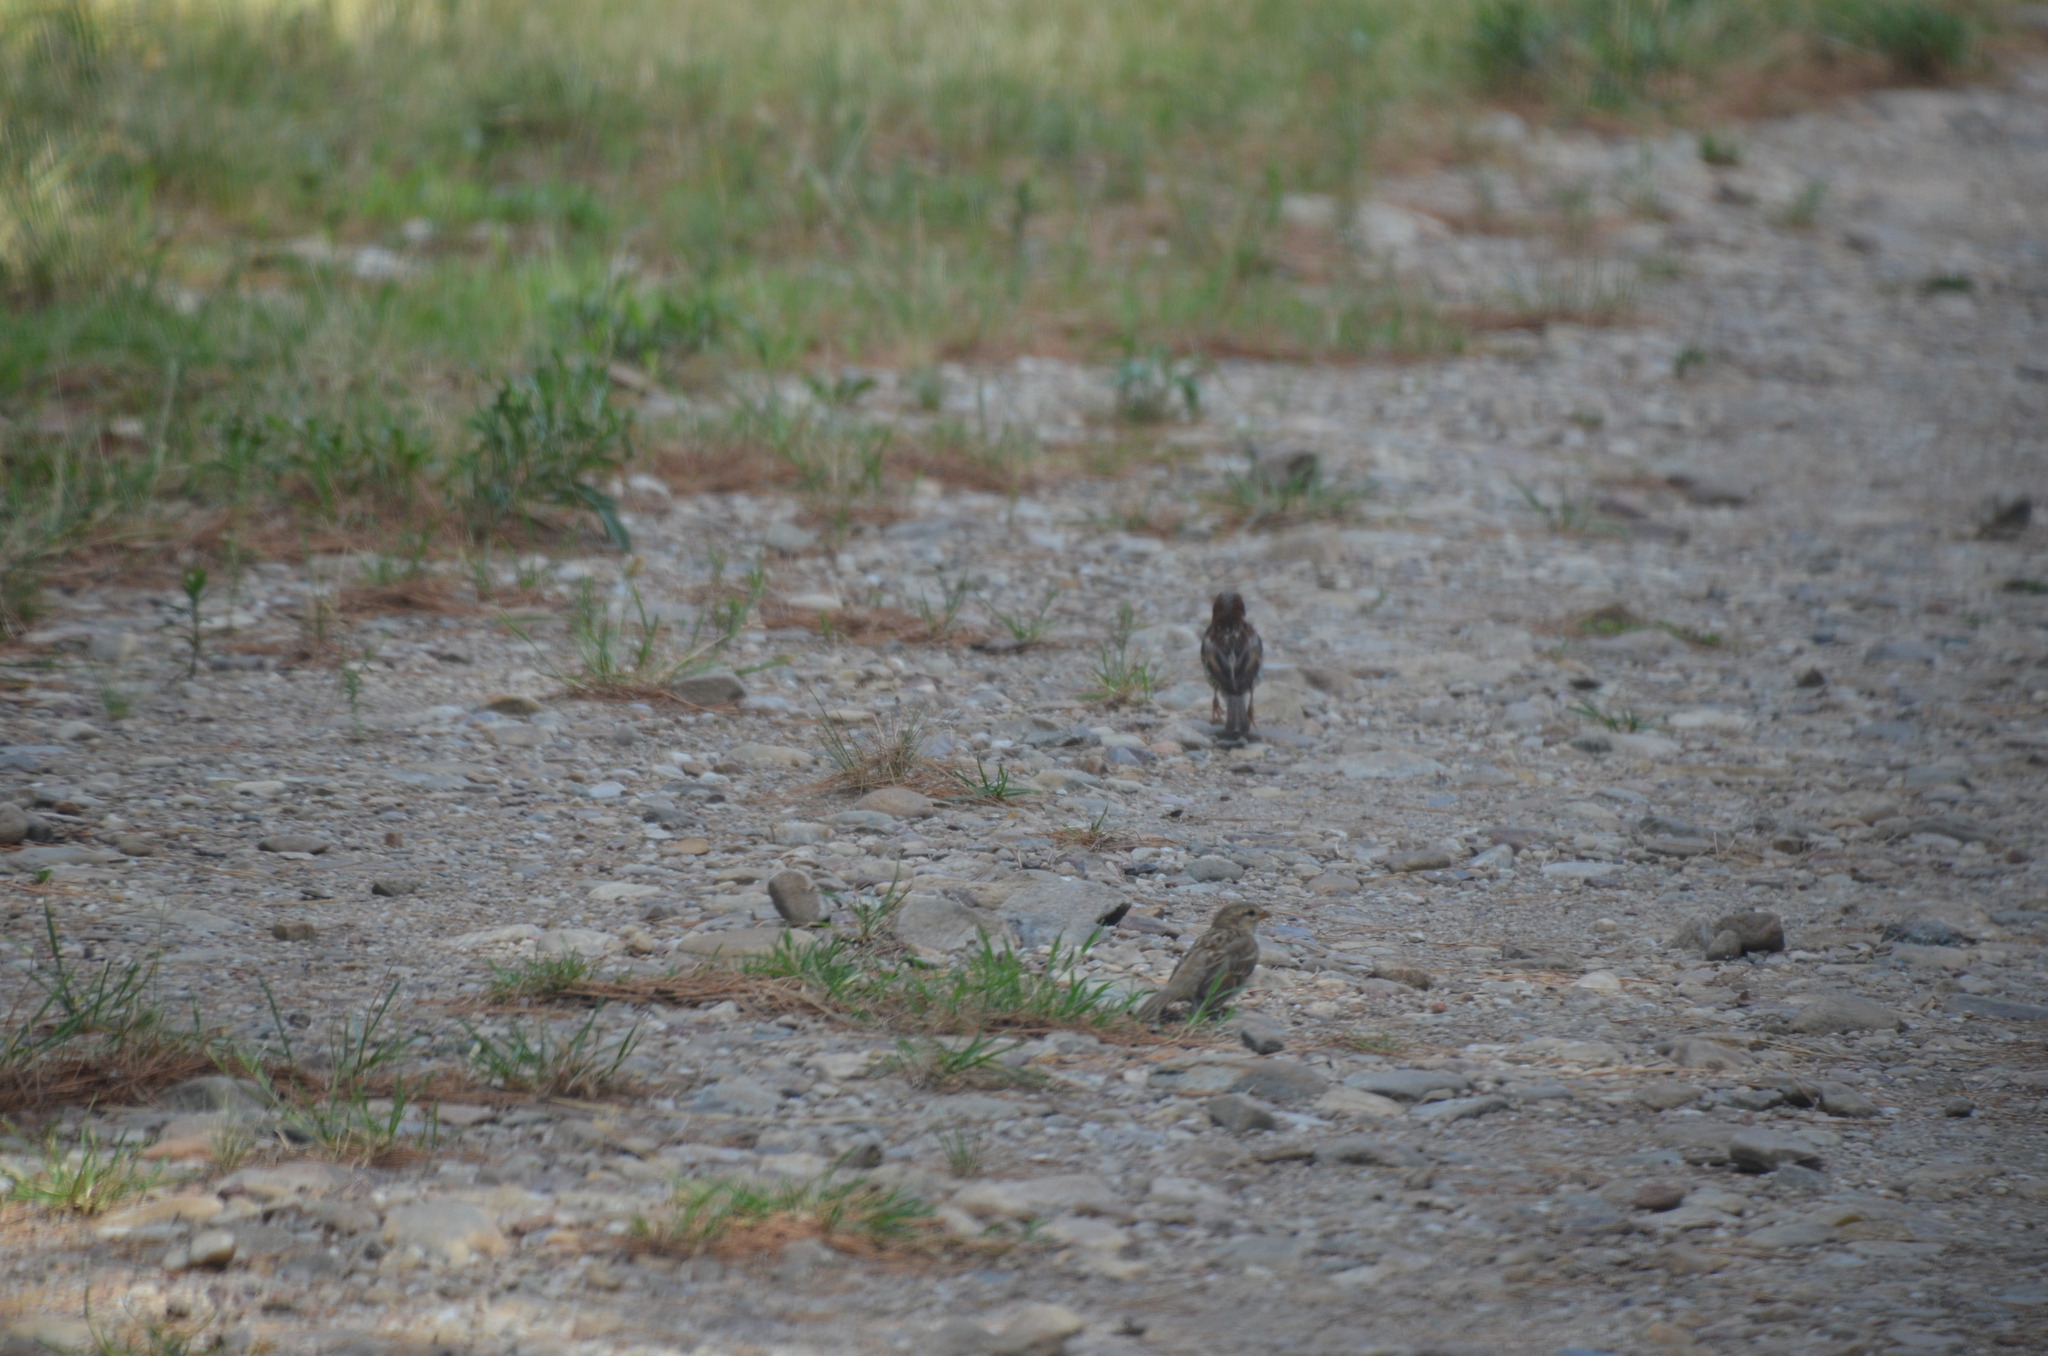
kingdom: Animalia
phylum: Chordata
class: Aves
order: Passeriformes
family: Passeridae
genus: Passer
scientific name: Passer domesticus
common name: House sparrow
